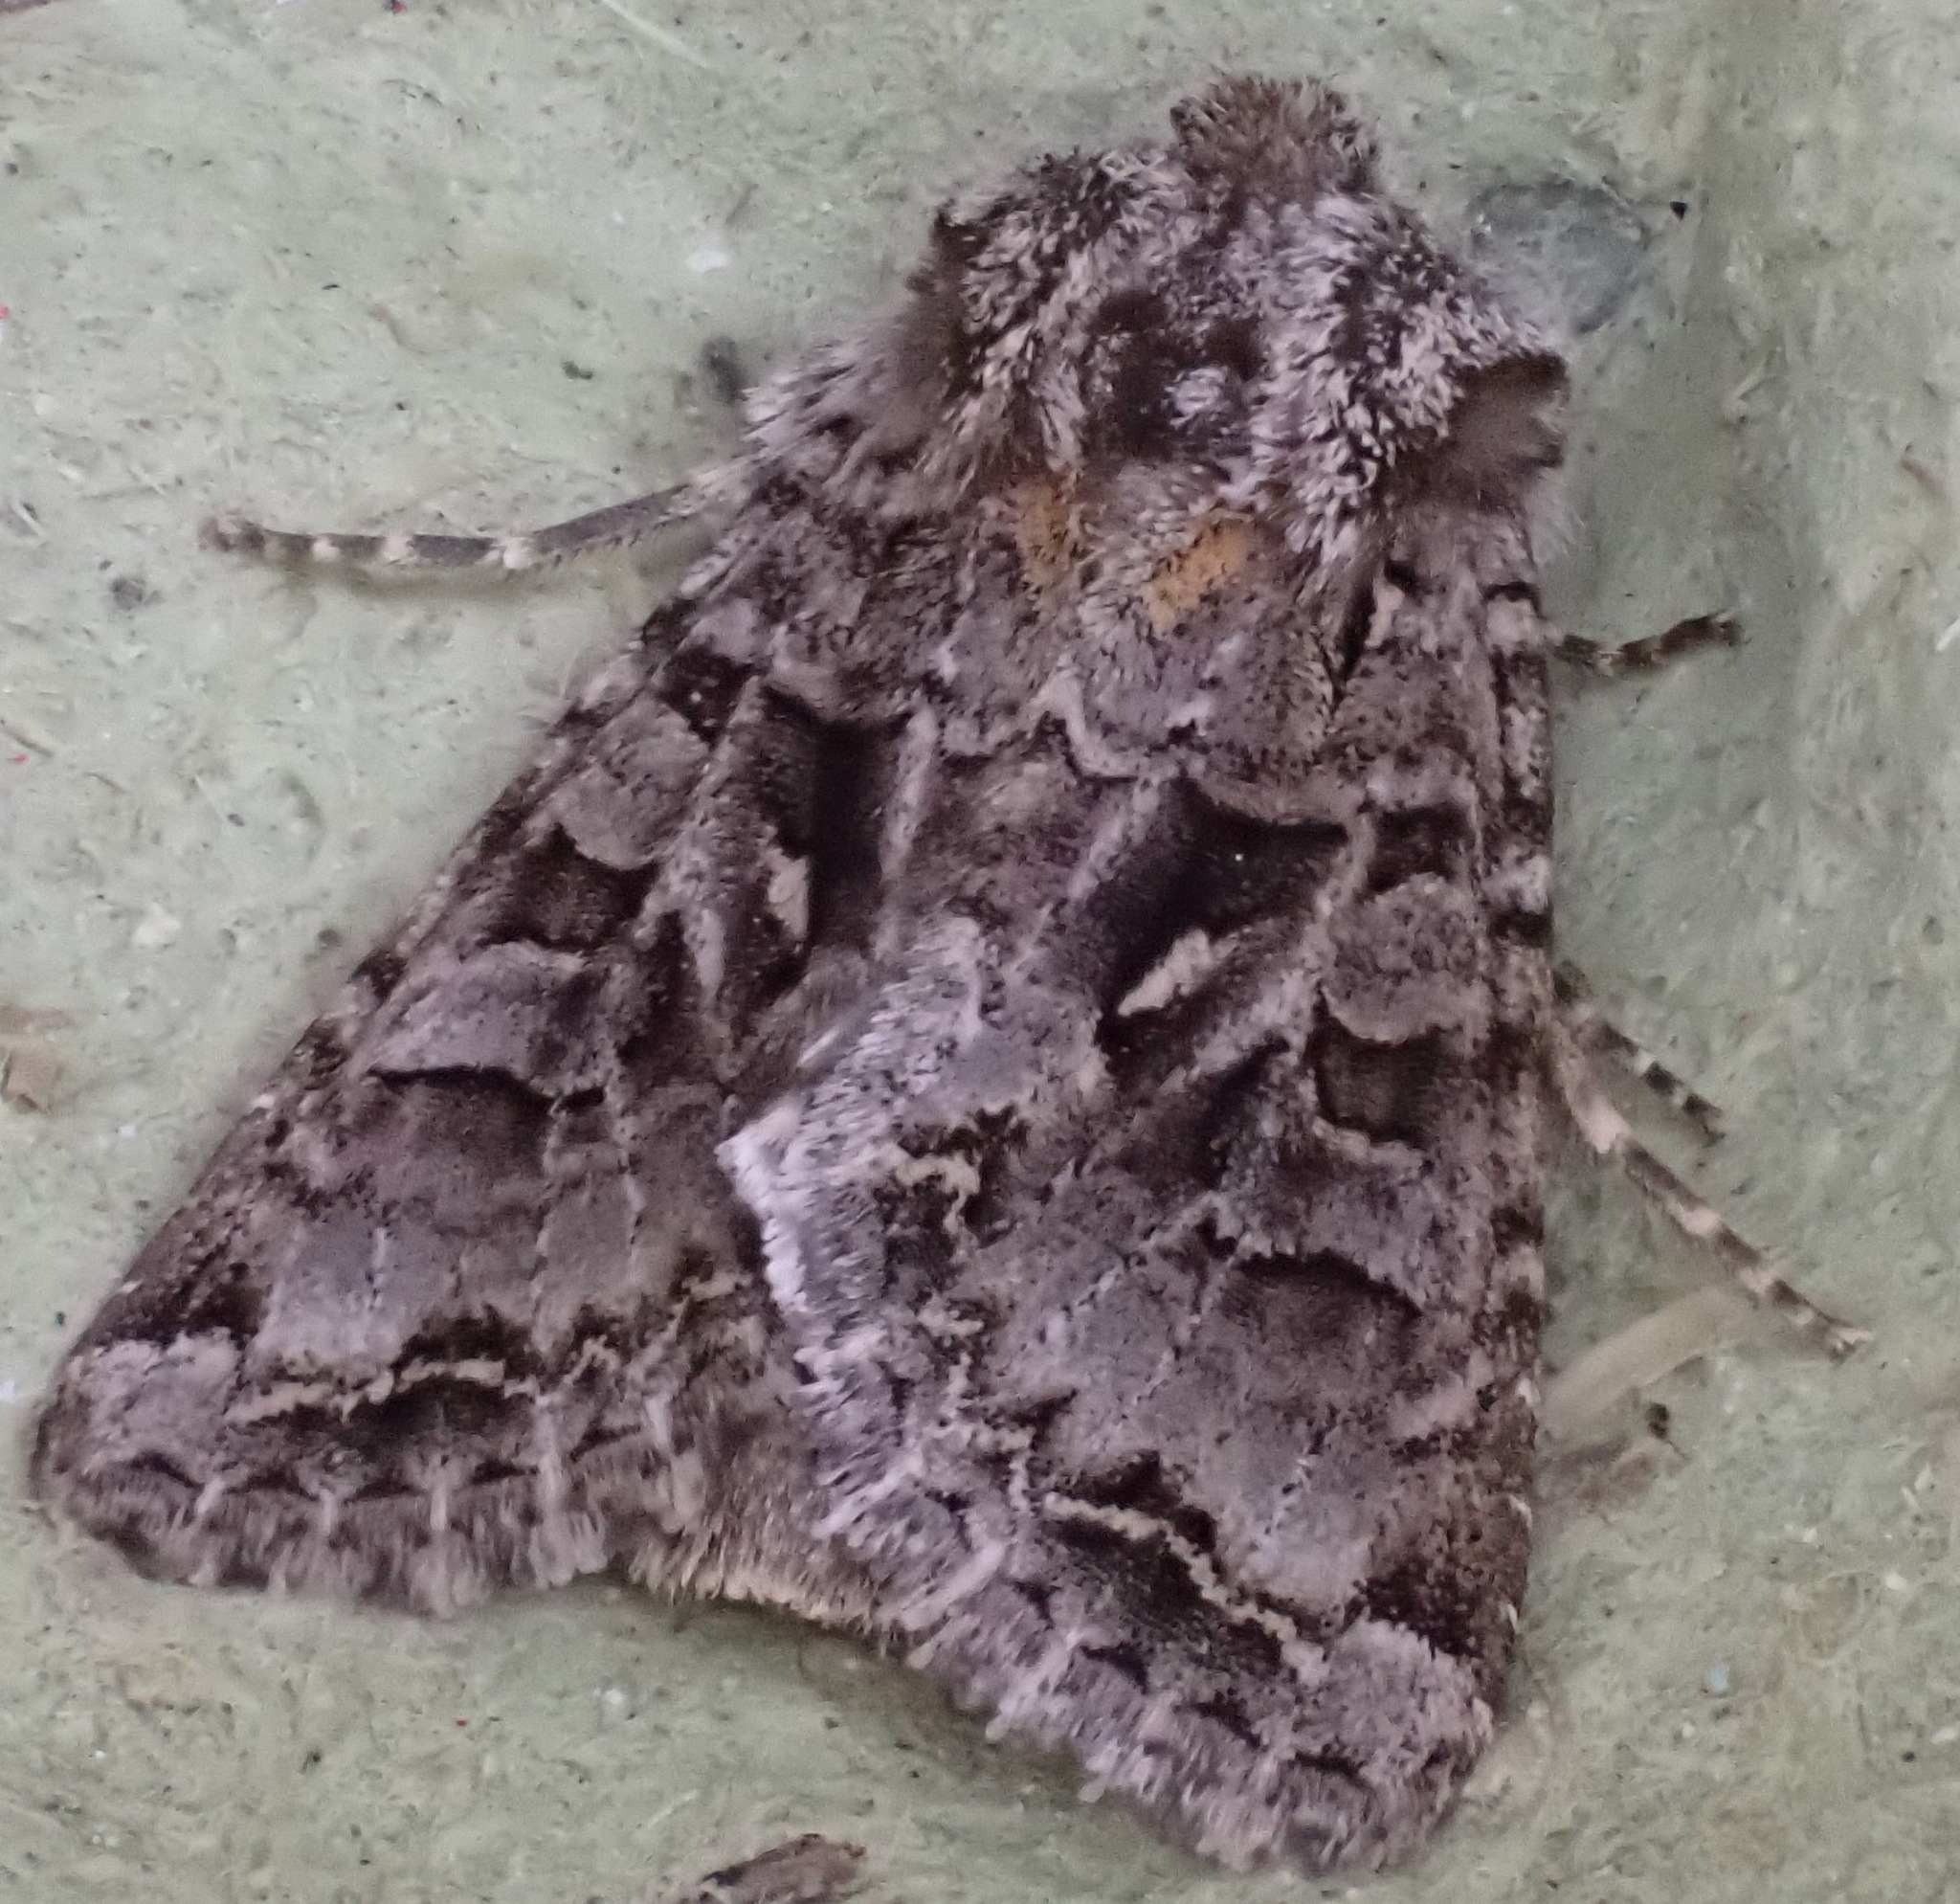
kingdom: Animalia
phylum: Arthropoda
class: Insecta
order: Lepidoptera
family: Noctuidae
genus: Hada
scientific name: Hada plebeja
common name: Shears
